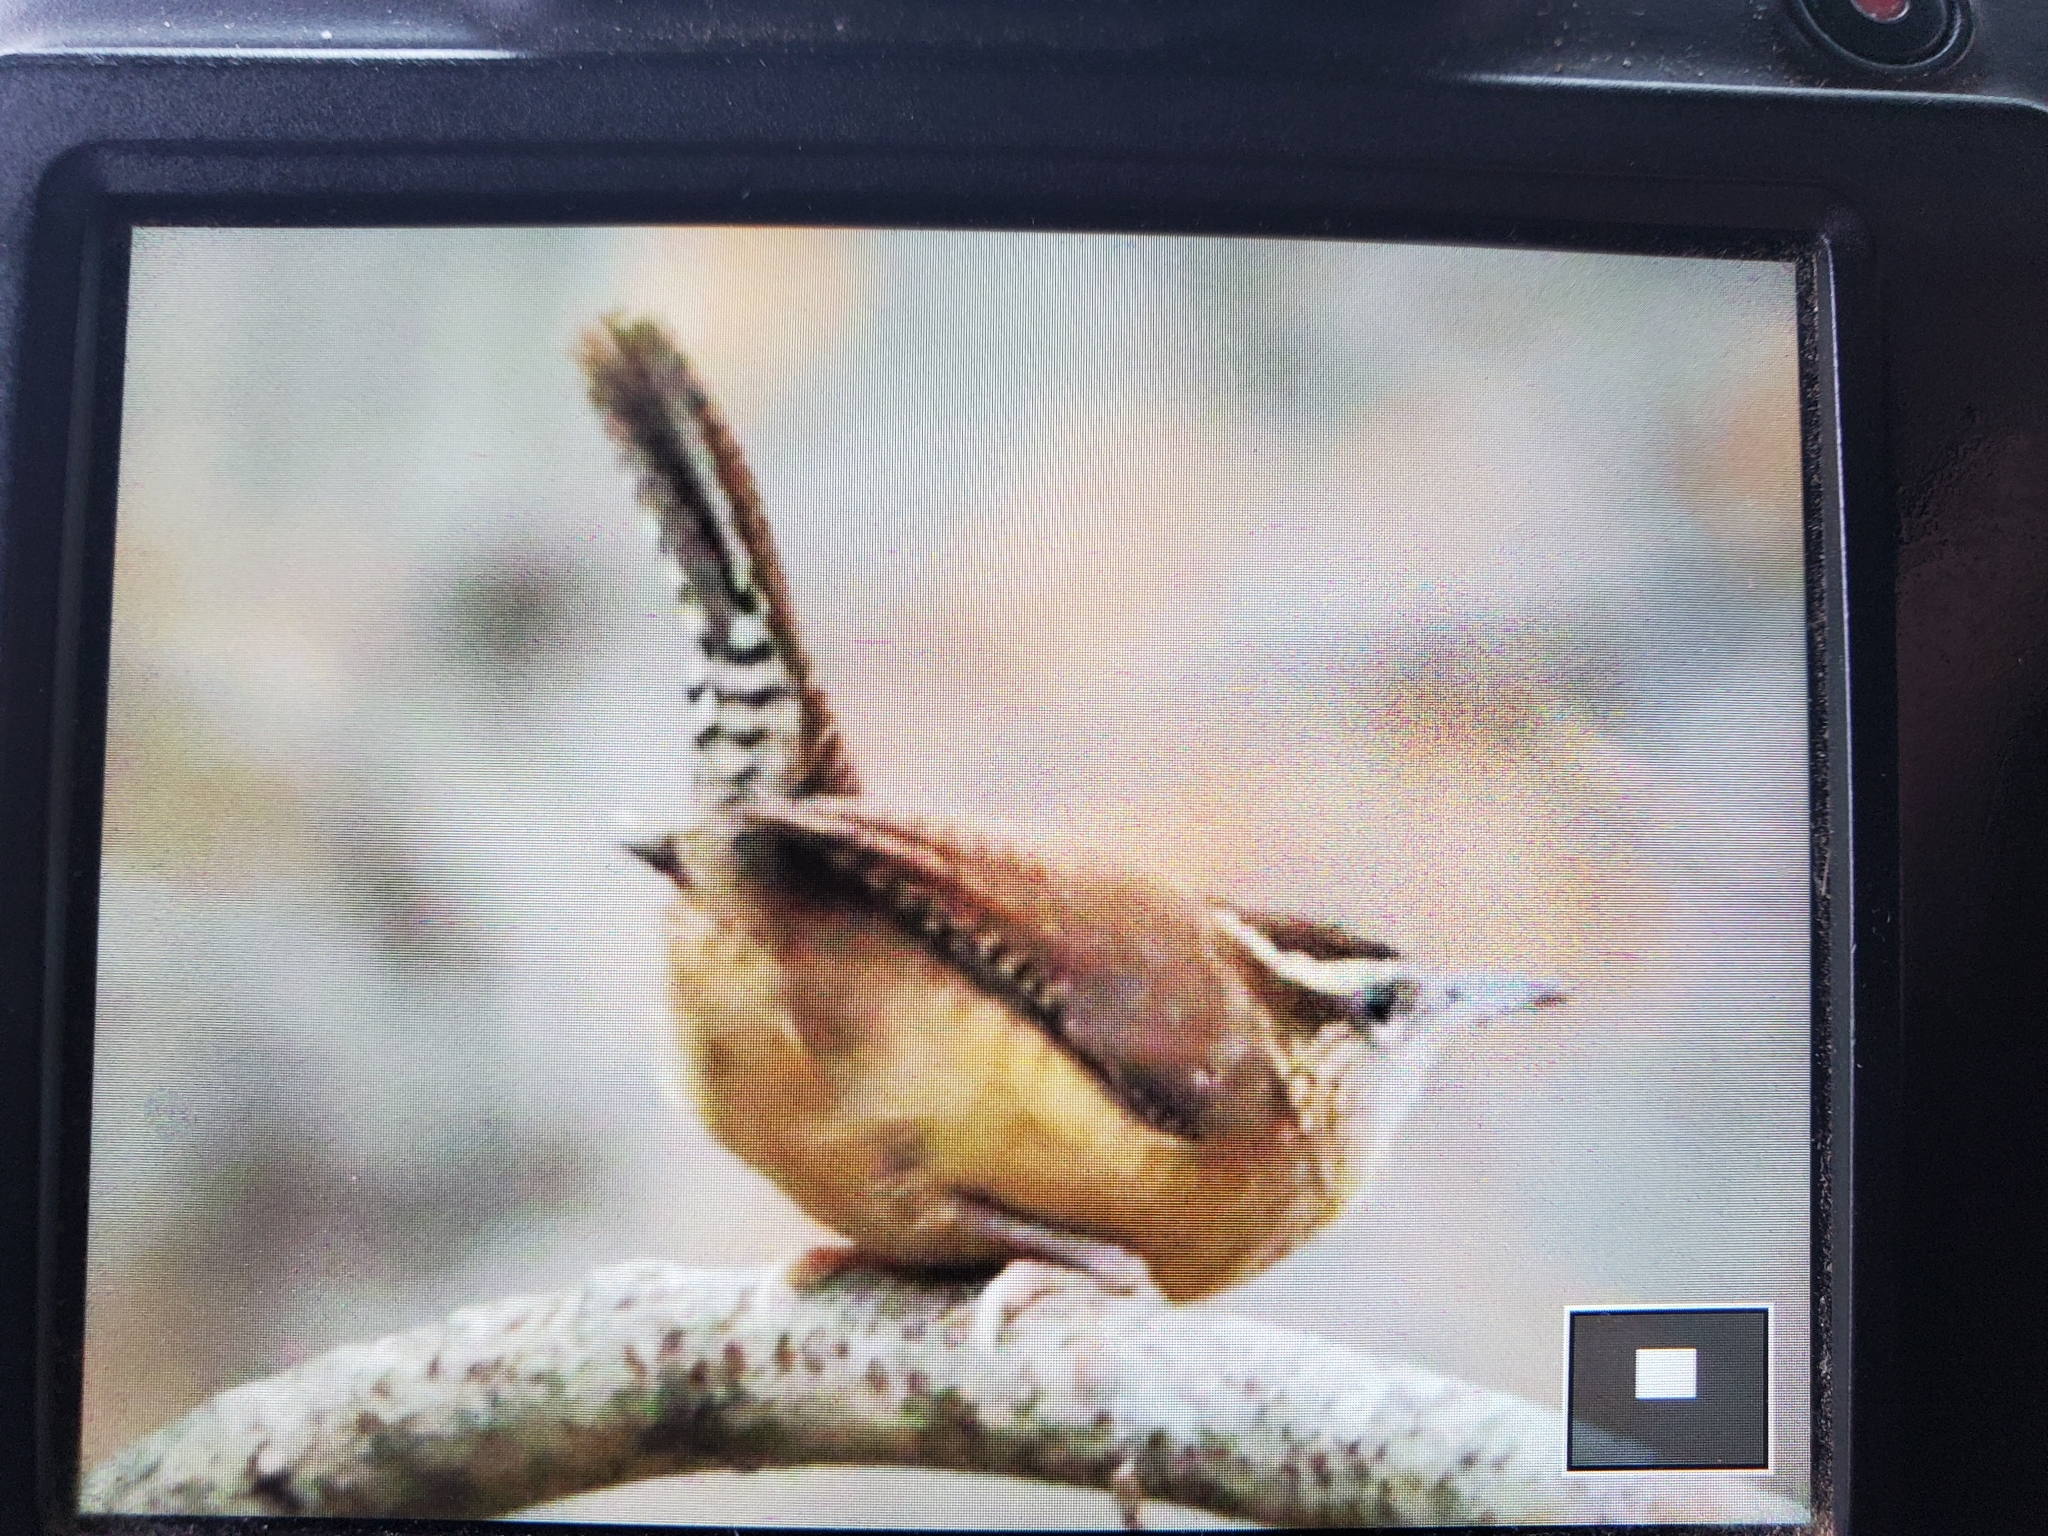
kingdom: Animalia
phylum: Chordata
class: Aves
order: Passeriformes
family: Troglodytidae
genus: Thryothorus
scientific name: Thryothorus ludovicianus
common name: Carolina wren
